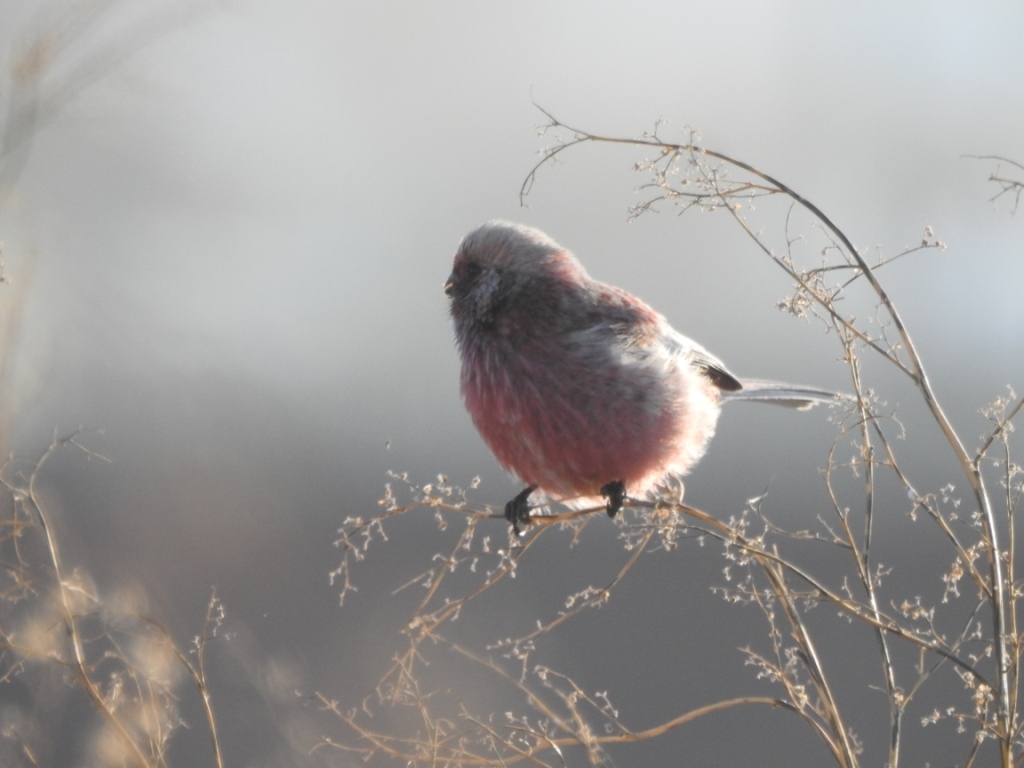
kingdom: Animalia
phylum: Chordata
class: Aves
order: Passeriformes
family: Fringillidae
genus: Carpodacus
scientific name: Carpodacus sibiricus
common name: Long-tailed rosefinch
